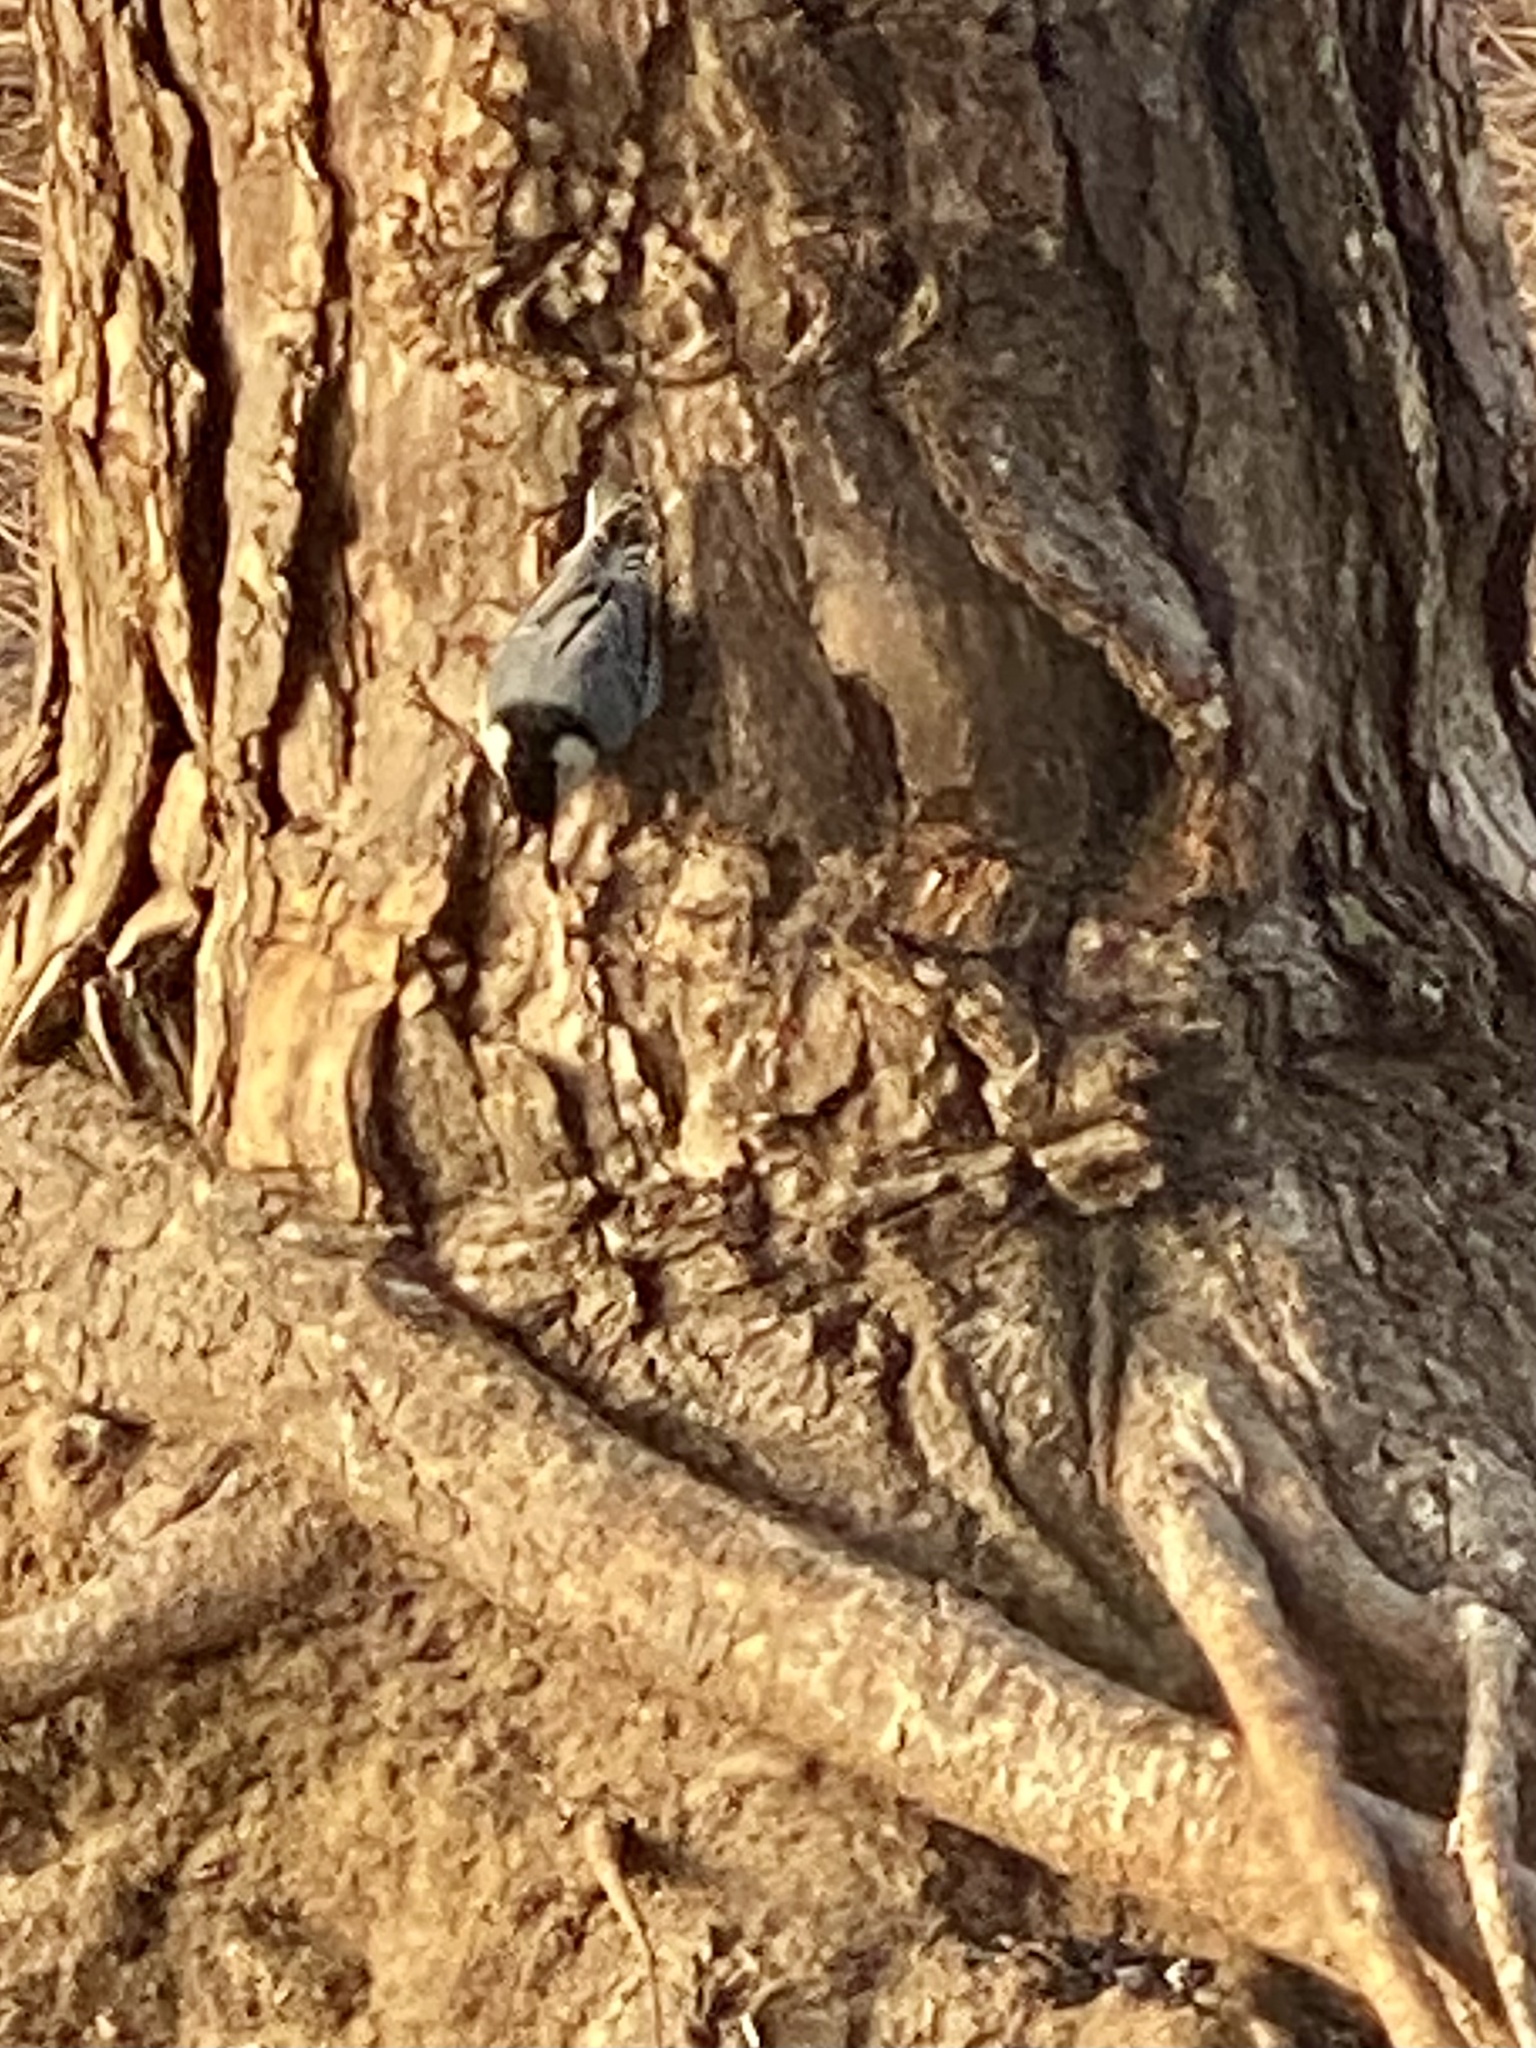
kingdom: Animalia
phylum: Chordata
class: Aves
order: Passeriformes
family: Sittidae
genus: Sitta
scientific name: Sitta carolinensis
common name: White-breasted nuthatch
